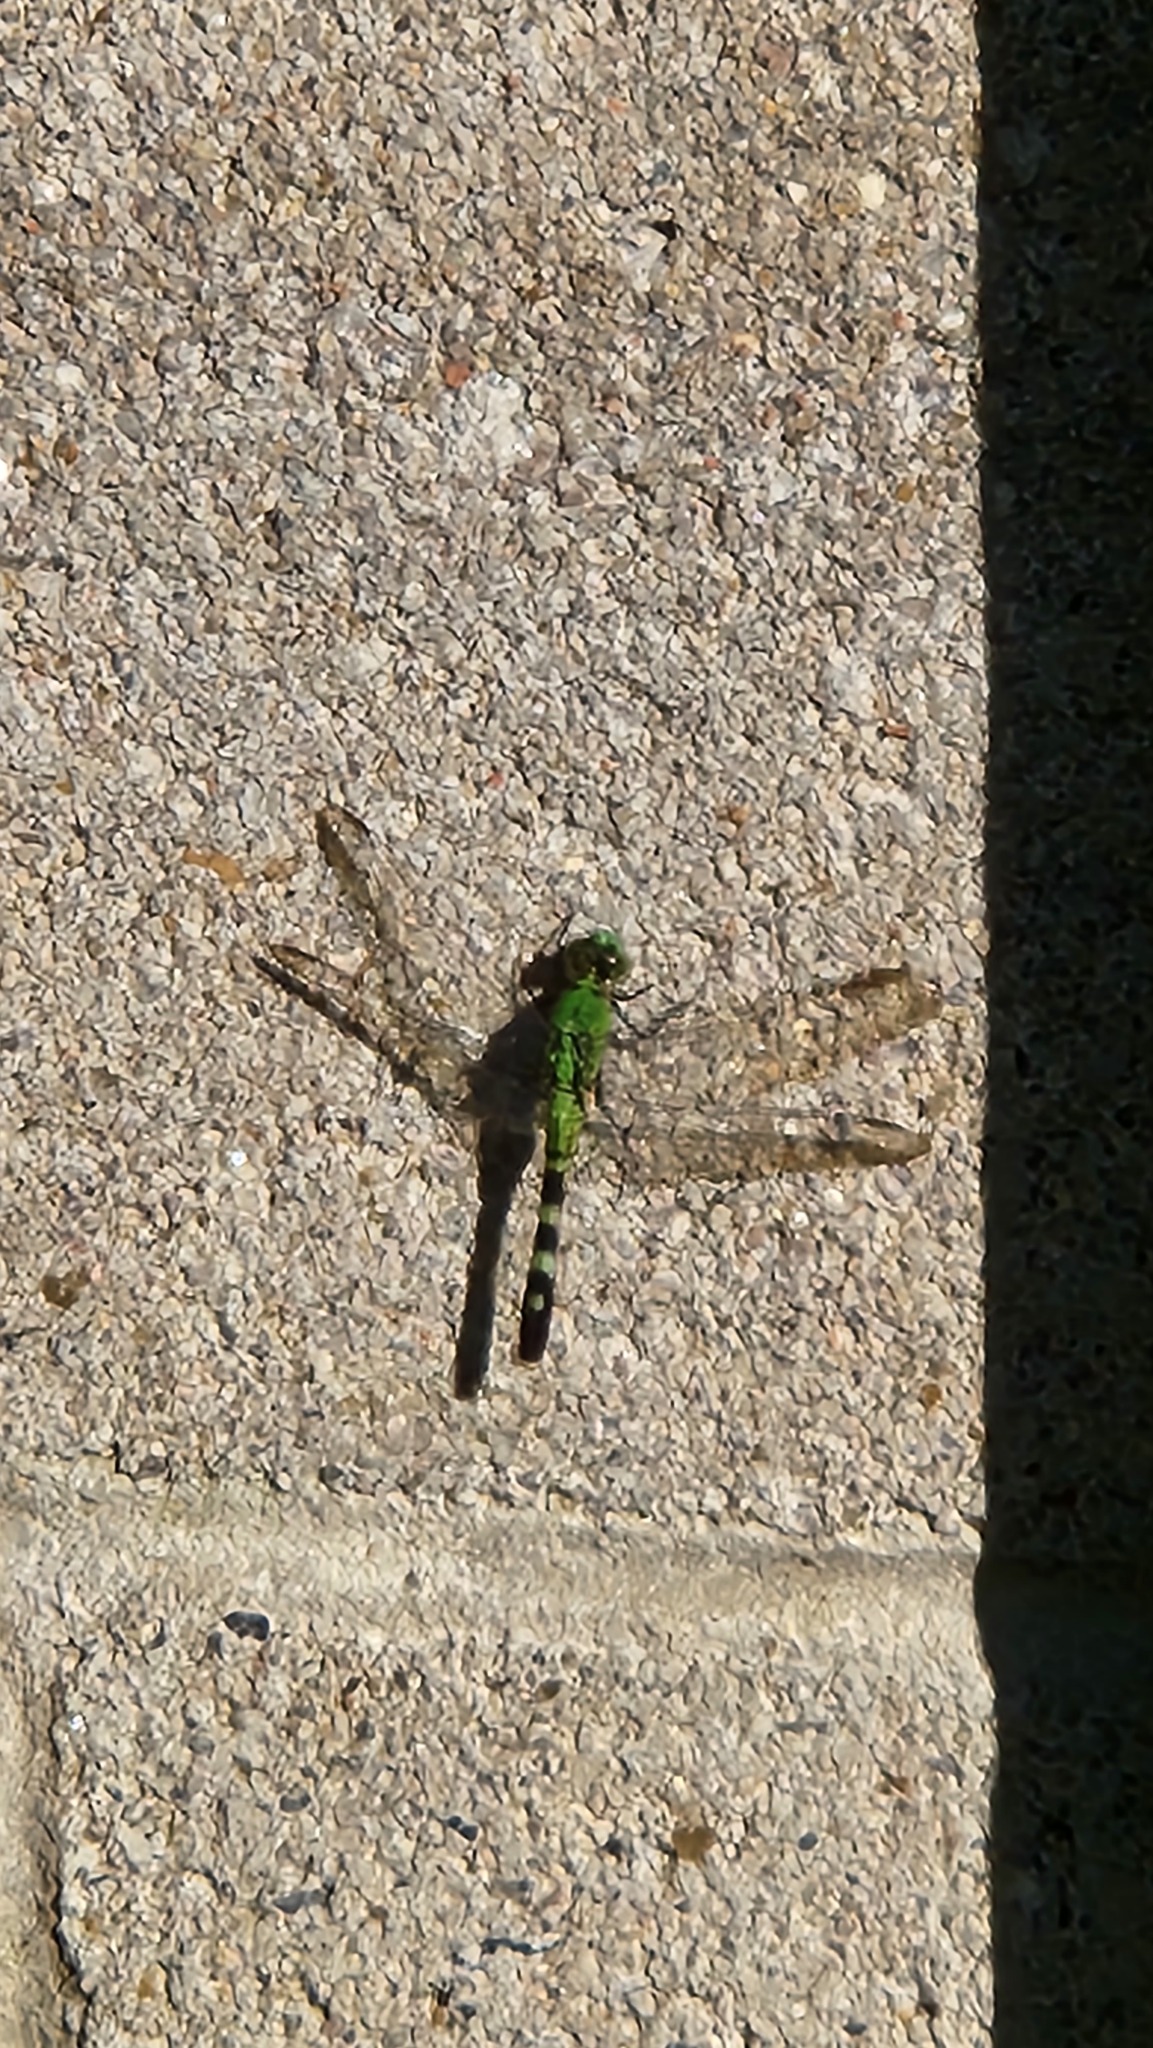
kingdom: Animalia
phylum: Arthropoda
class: Insecta
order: Odonata
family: Libellulidae
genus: Erythemis
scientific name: Erythemis simplicicollis
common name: Eastern pondhawk
